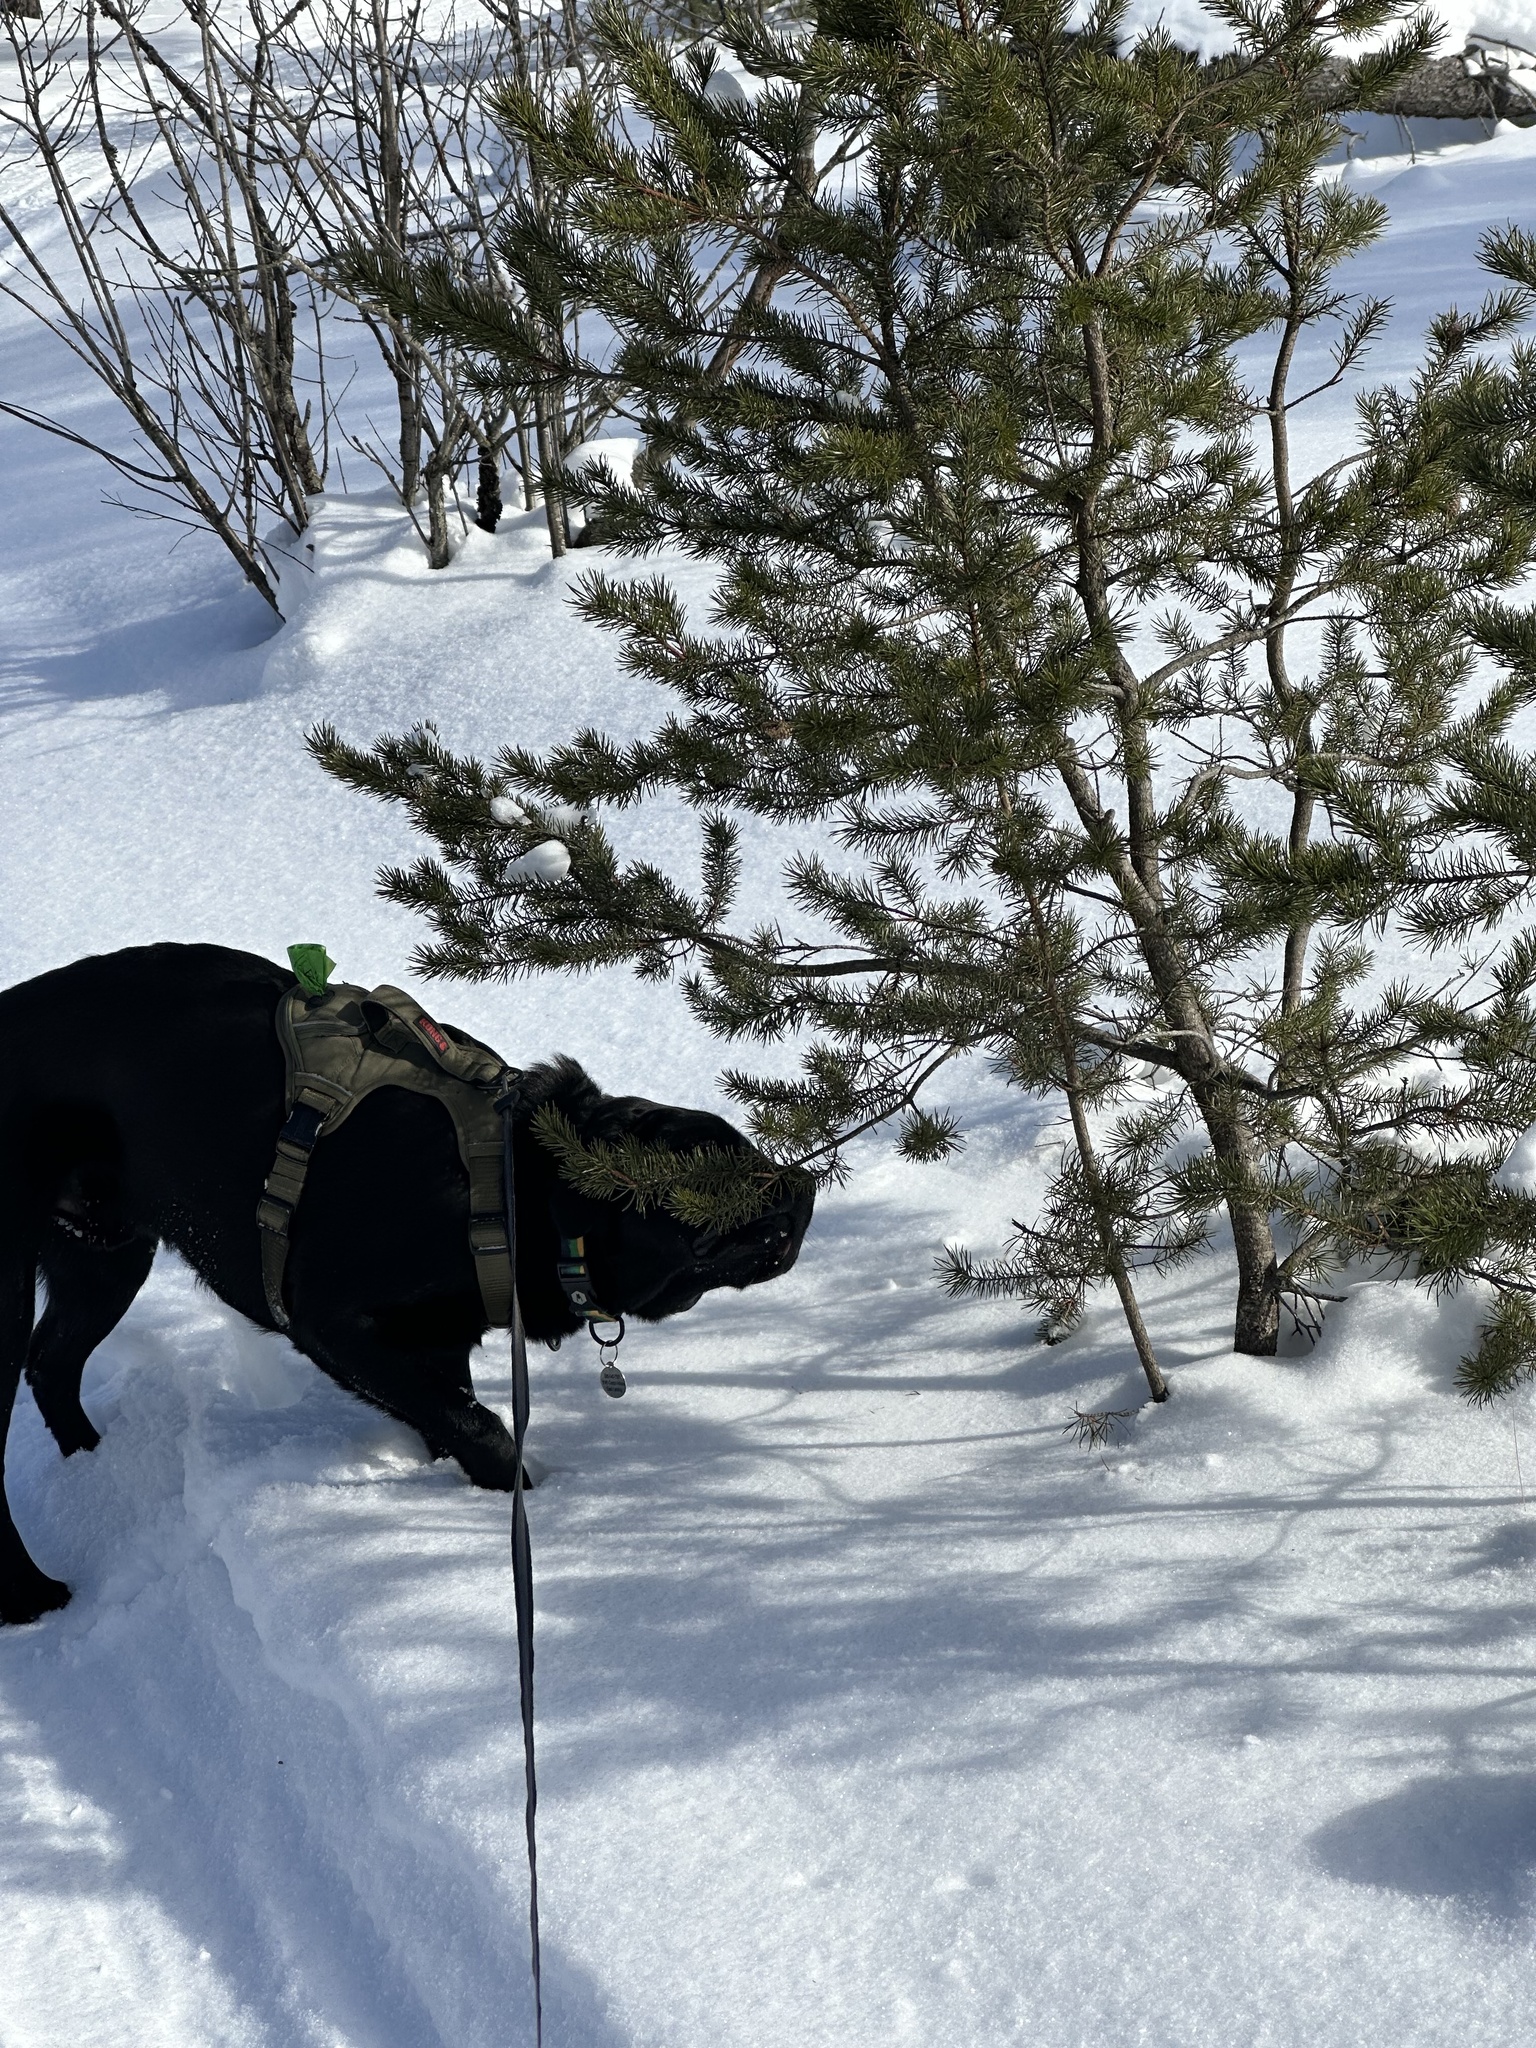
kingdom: Plantae
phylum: Tracheophyta
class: Pinopsida
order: Pinales
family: Pinaceae
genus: Pinus
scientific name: Pinus banksiana
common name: Jack pine
